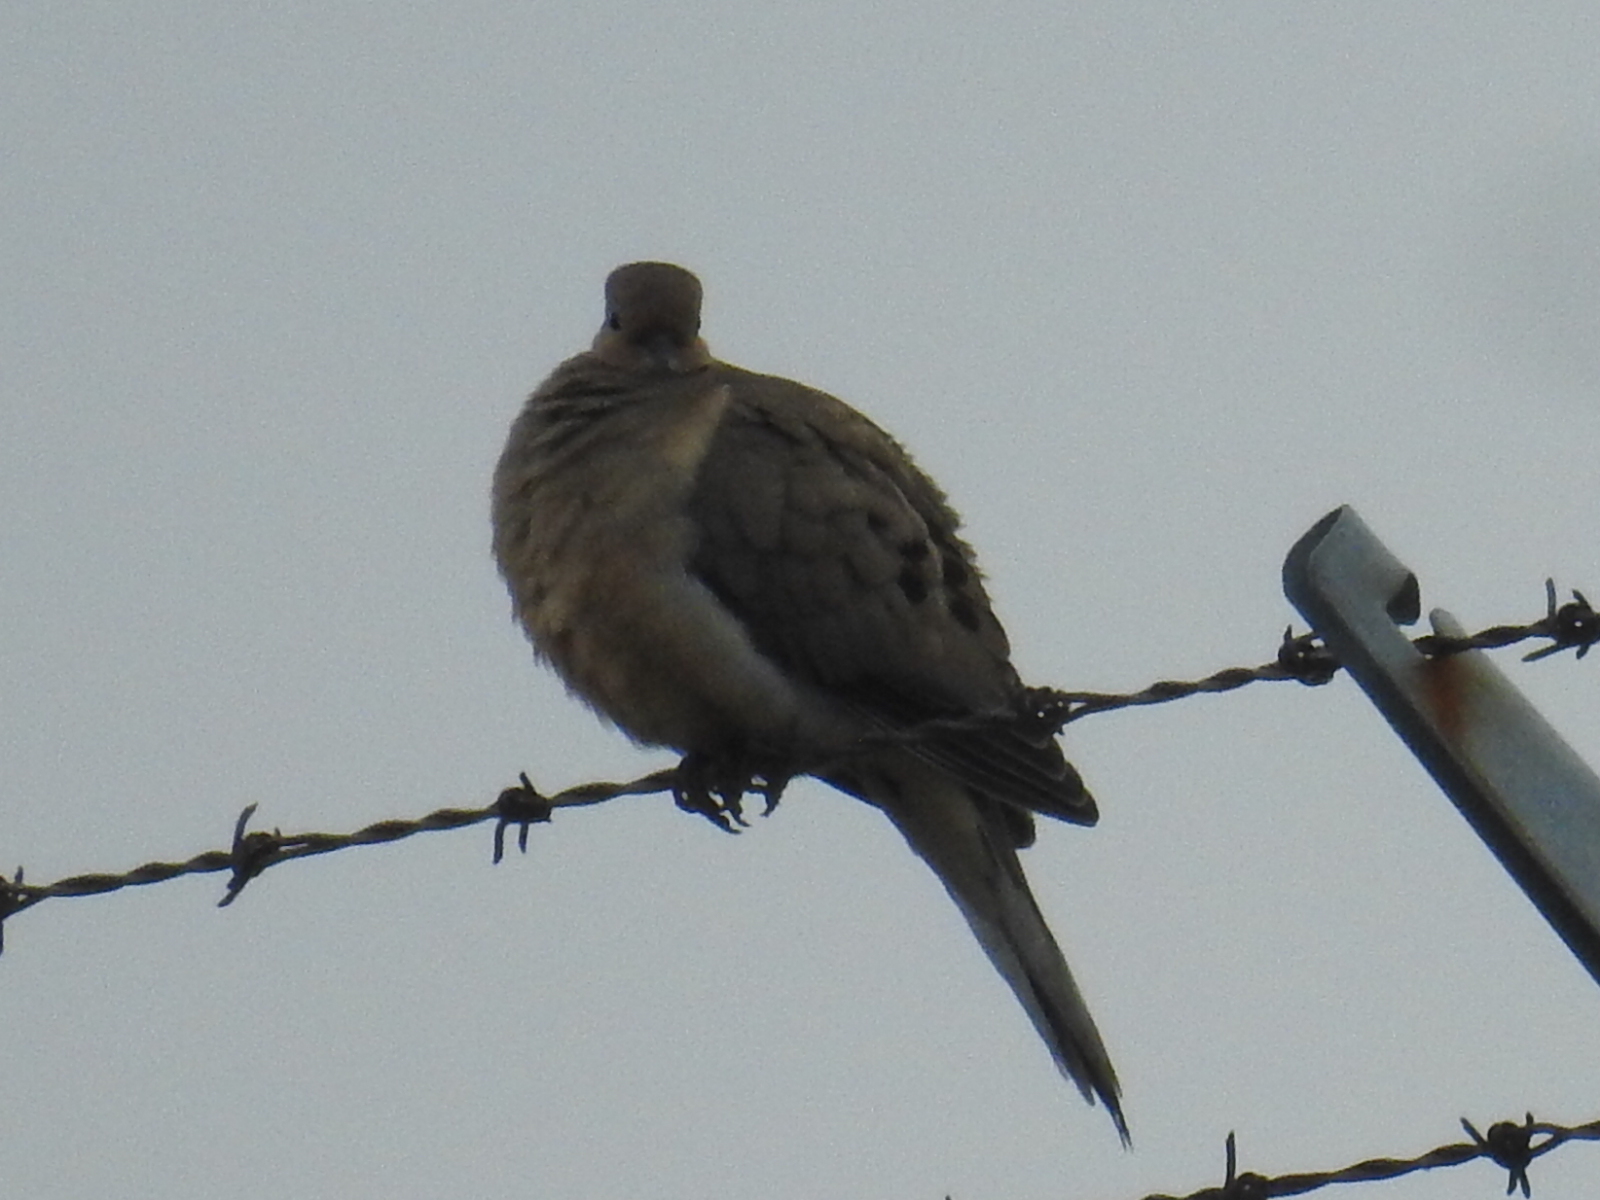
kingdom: Animalia
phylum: Chordata
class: Aves
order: Columbiformes
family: Columbidae
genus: Zenaida
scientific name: Zenaida macroura
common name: Mourning dove
